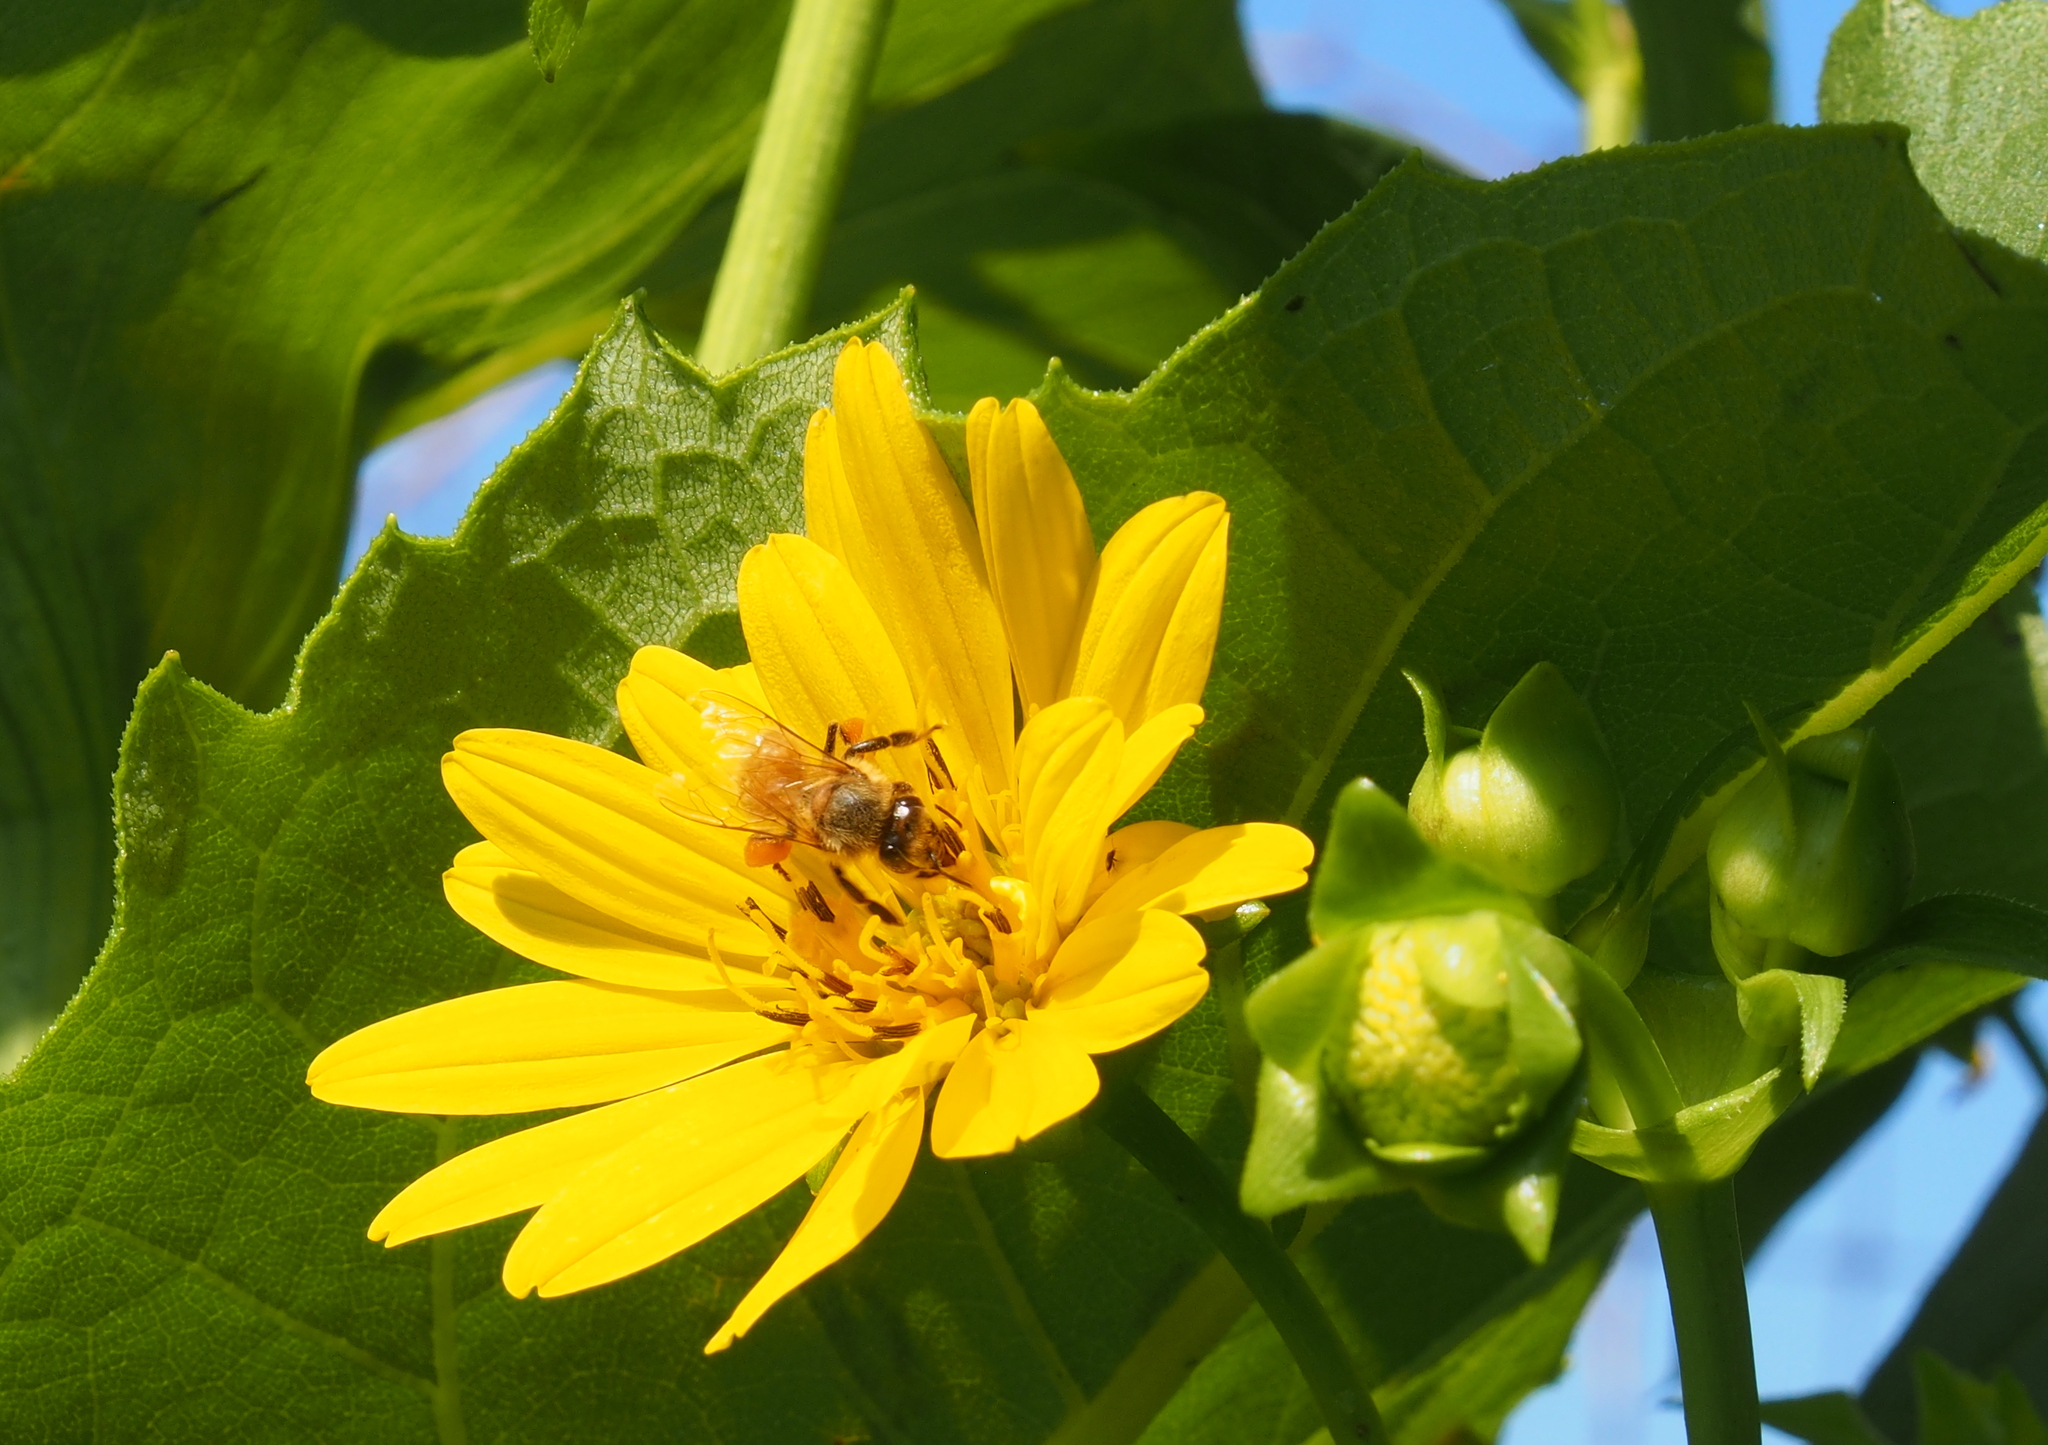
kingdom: Animalia
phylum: Arthropoda
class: Insecta
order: Hymenoptera
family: Apidae
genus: Apis
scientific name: Apis mellifera
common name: Honey bee
